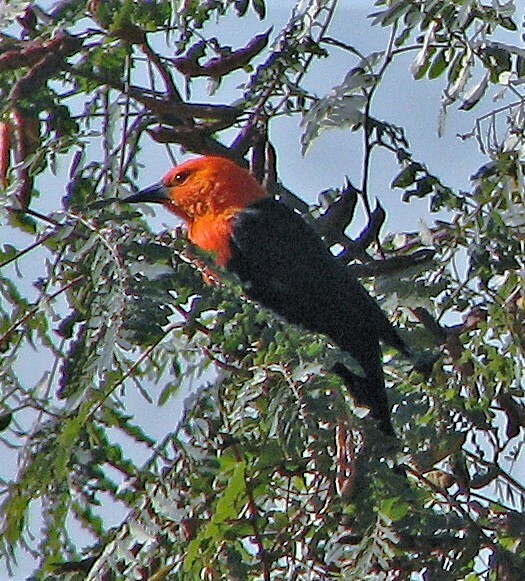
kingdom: Animalia
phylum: Chordata
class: Aves
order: Passeriformes
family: Icteridae
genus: Amblyramphus
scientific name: Amblyramphus holosericeus
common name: Scarlet-headed blackbird
